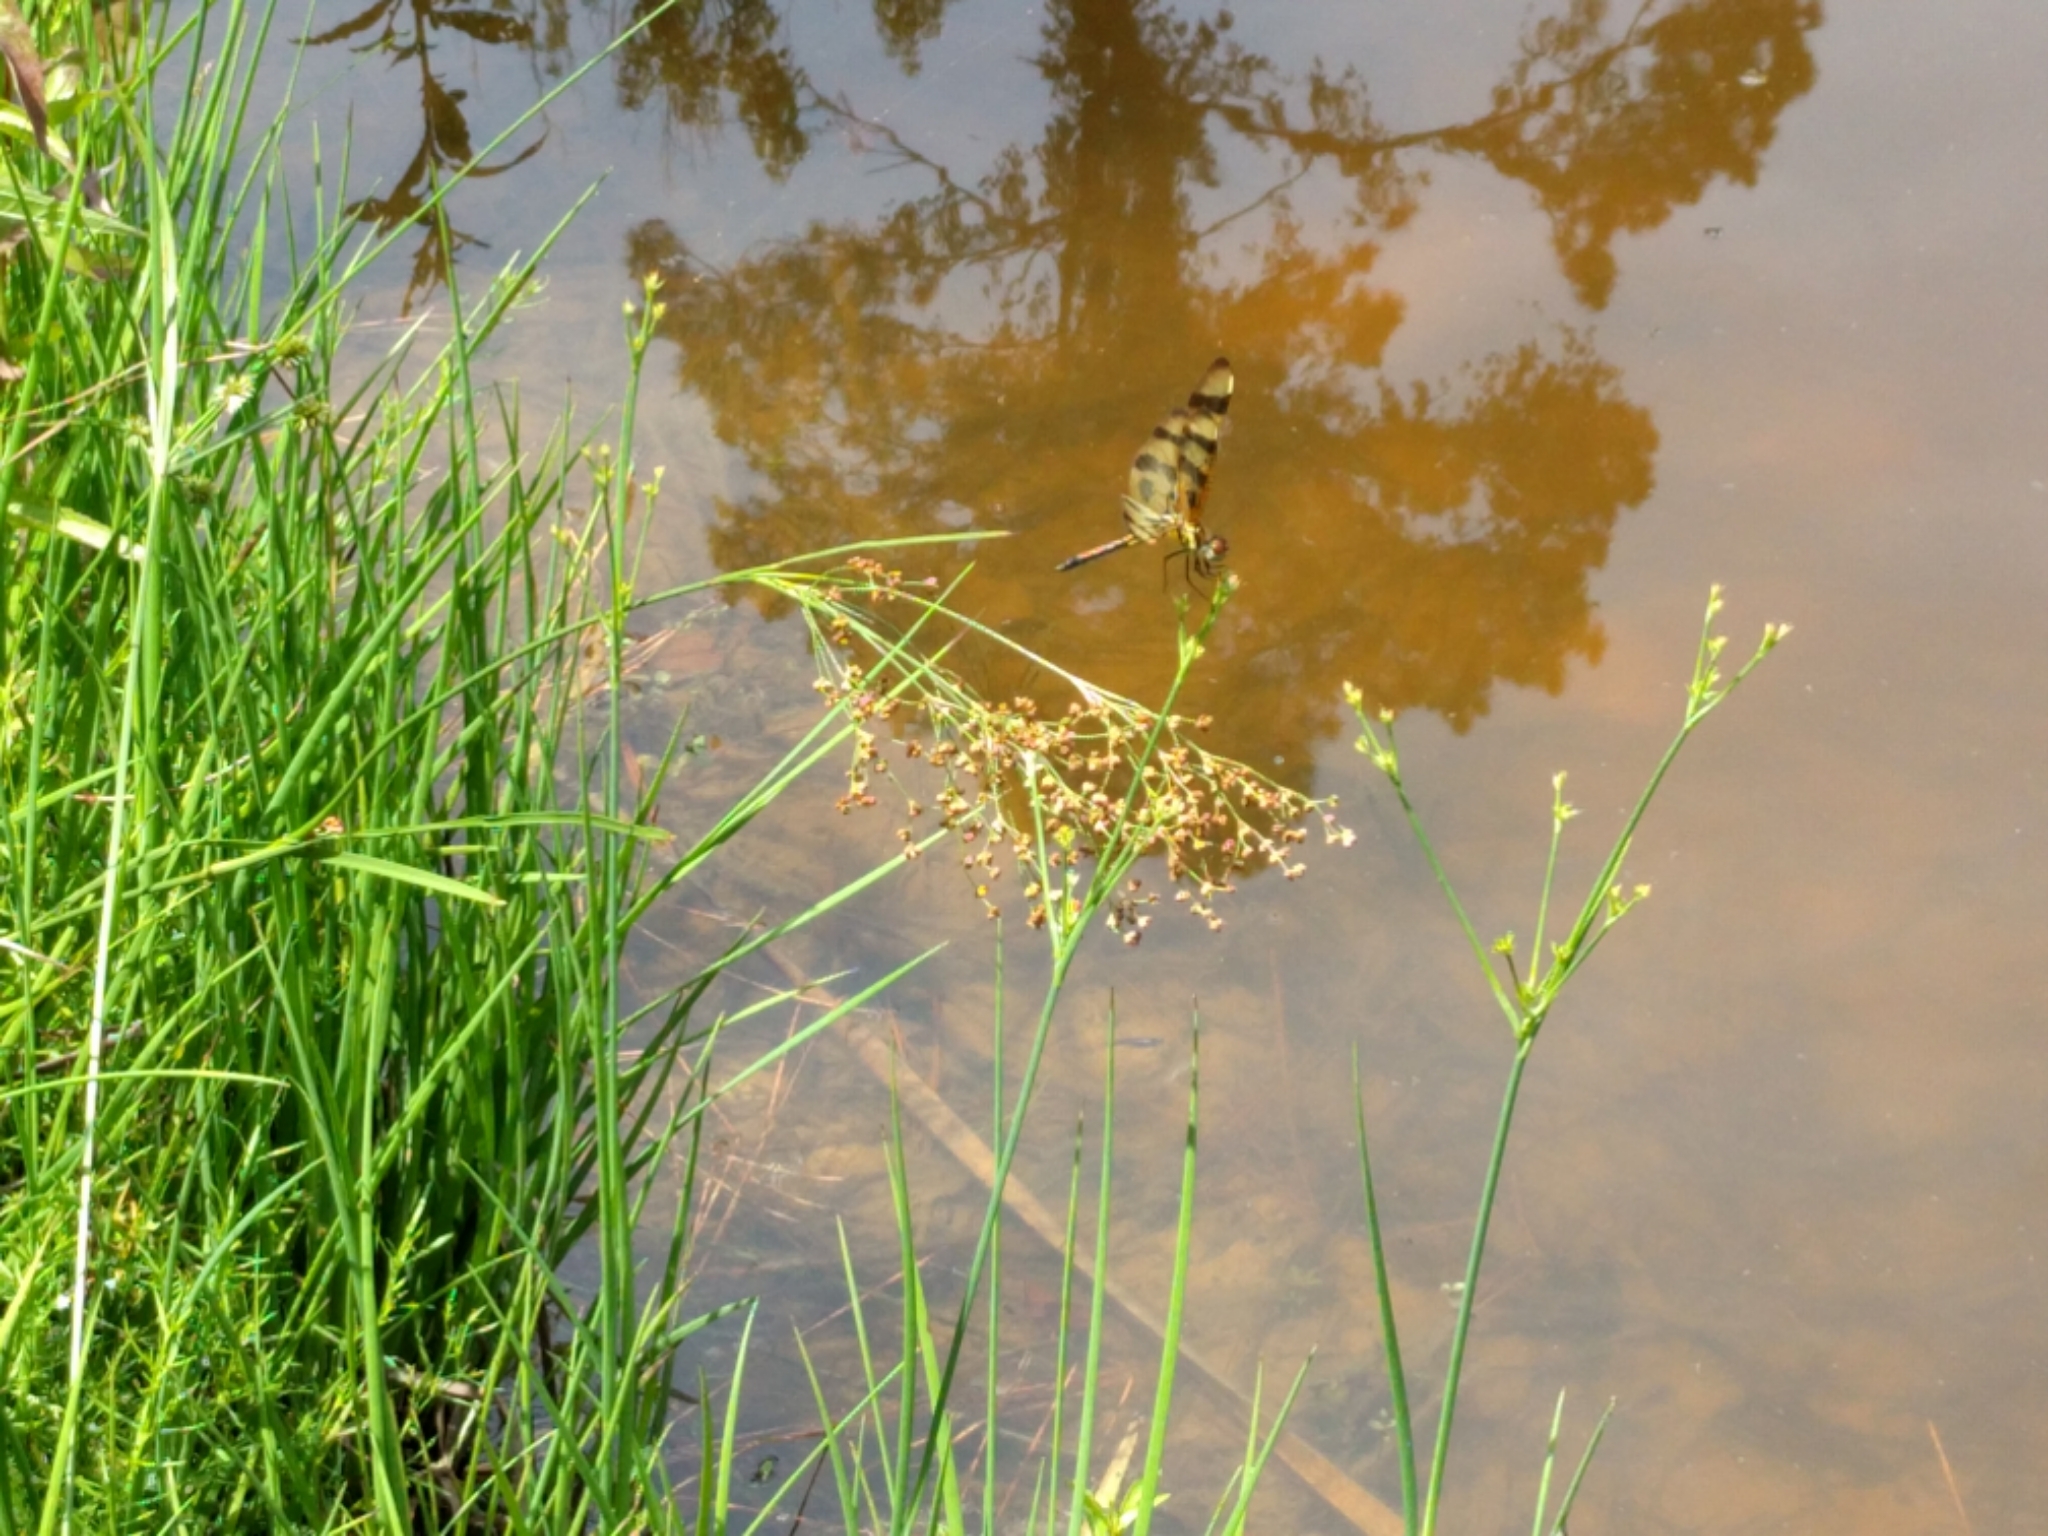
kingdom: Animalia
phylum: Arthropoda
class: Insecta
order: Odonata
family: Libellulidae
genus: Celithemis
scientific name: Celithemis eponina
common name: Halloween pennant
